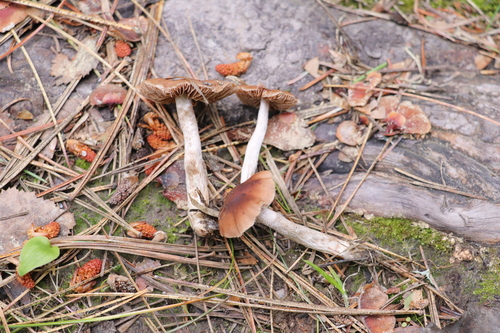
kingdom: Fungi
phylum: Basidiomycota
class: Agaricomycetes
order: Agaricales
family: Hymenogastraceae
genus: Hebeloma
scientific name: Hebeloma birrus
